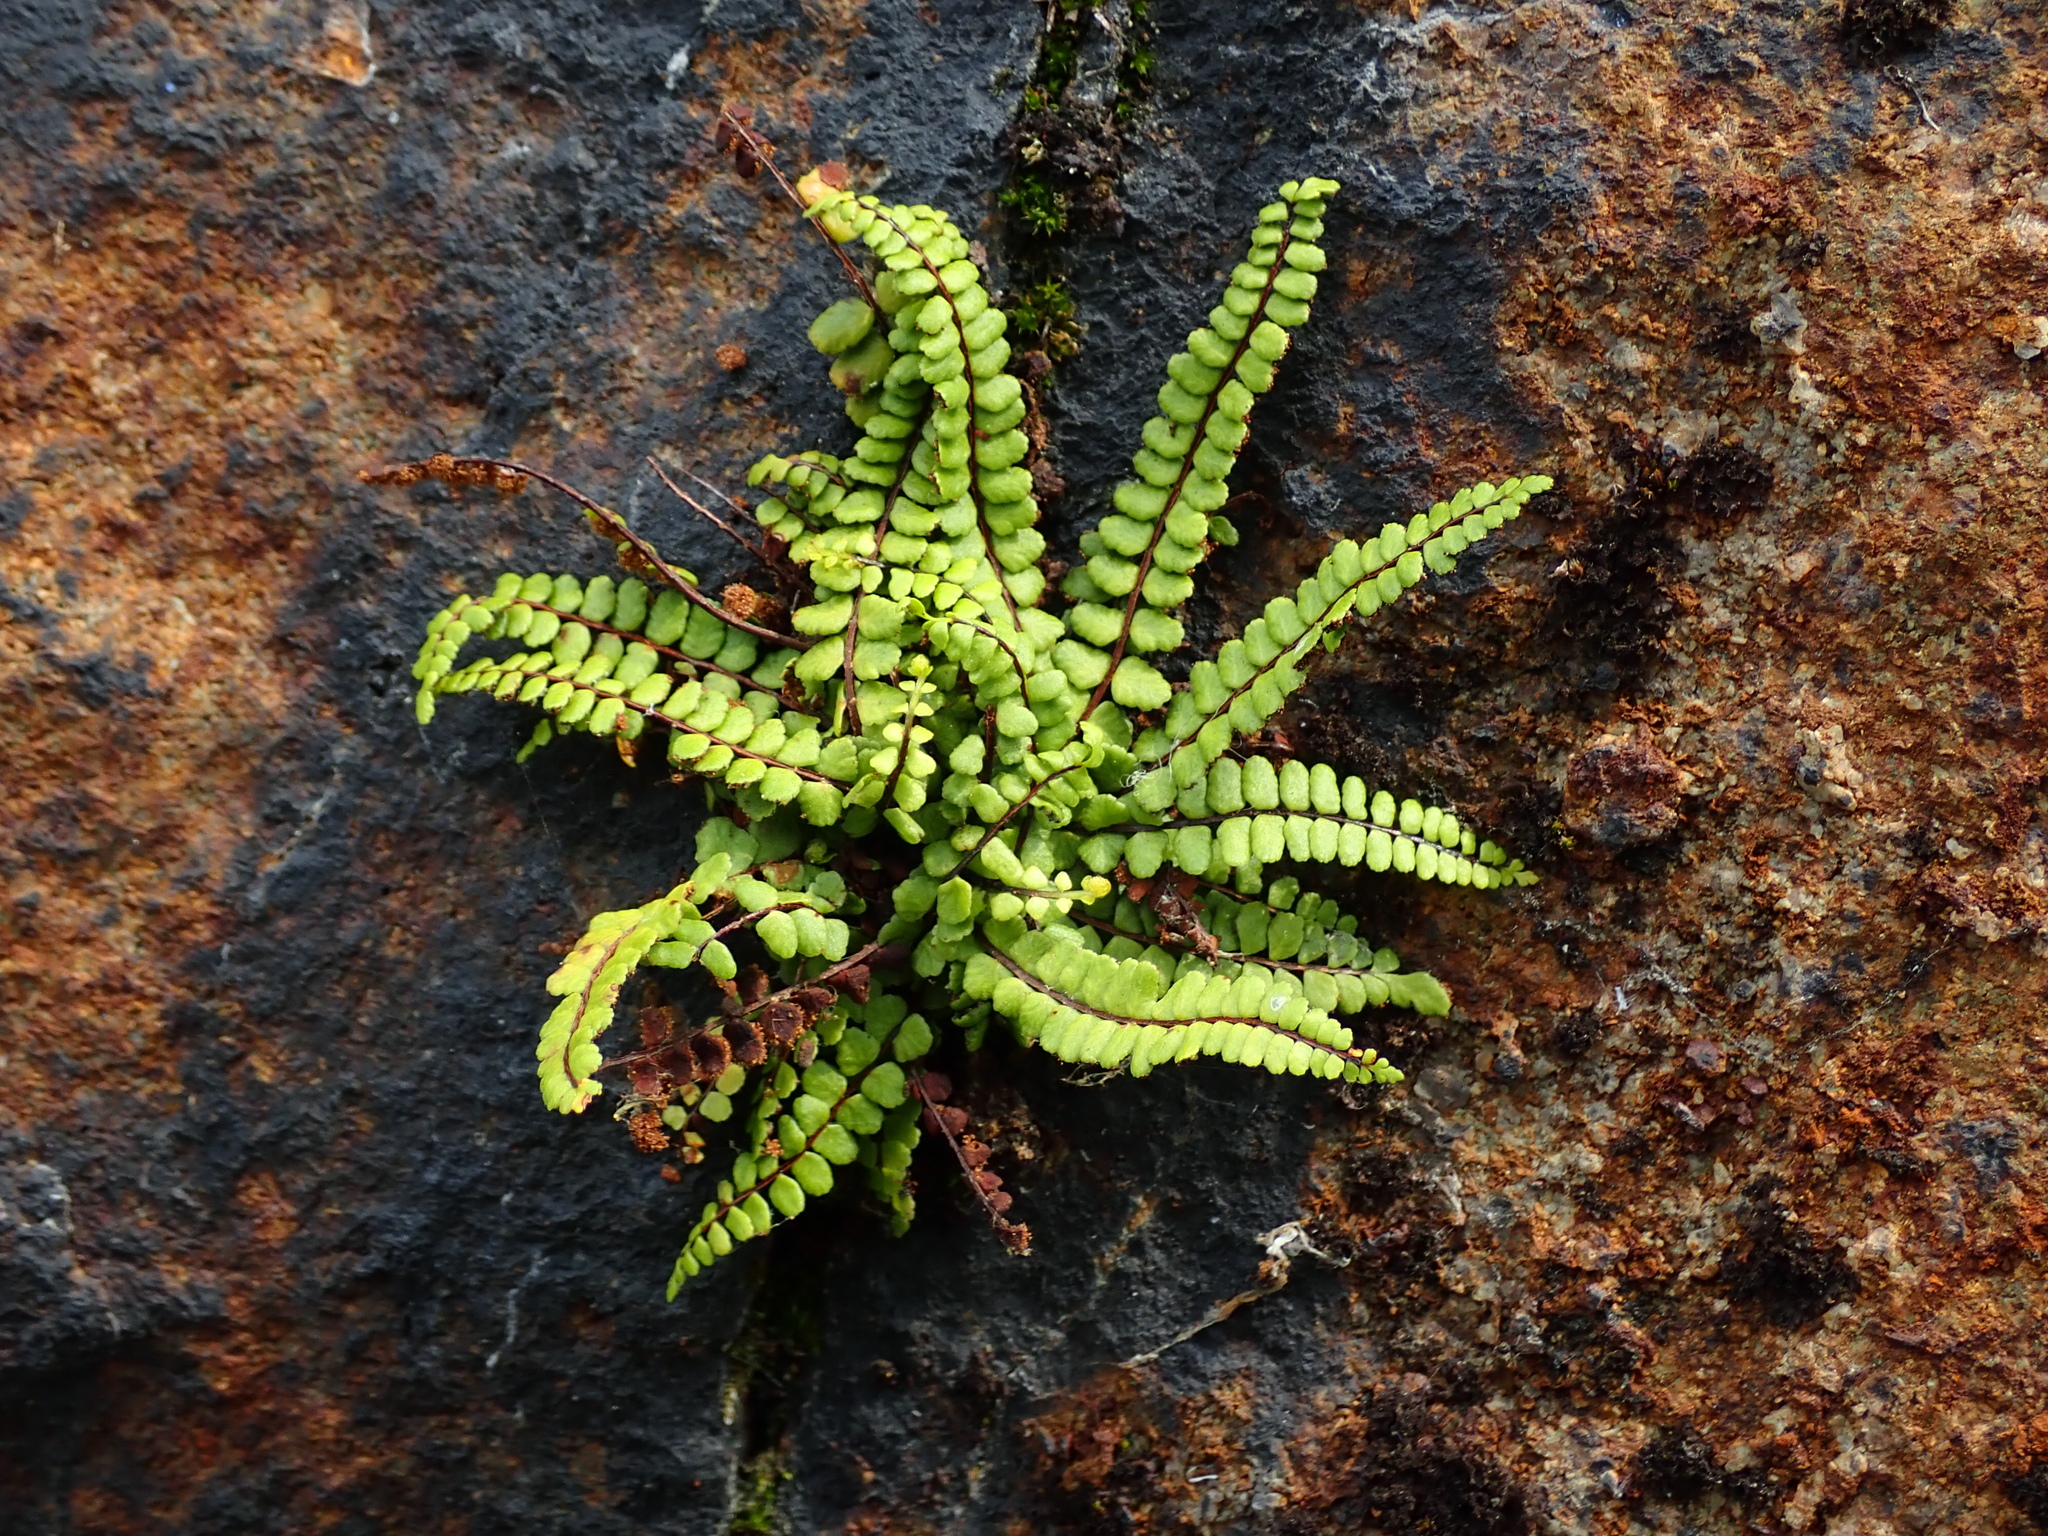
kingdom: Plantae
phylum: Tracheophyta
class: Polypodiopsida
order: Polypodiales
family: Aspleniaceae
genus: Asplenium
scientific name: Asplenium trichomanes
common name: Maidenhair spleenwort
